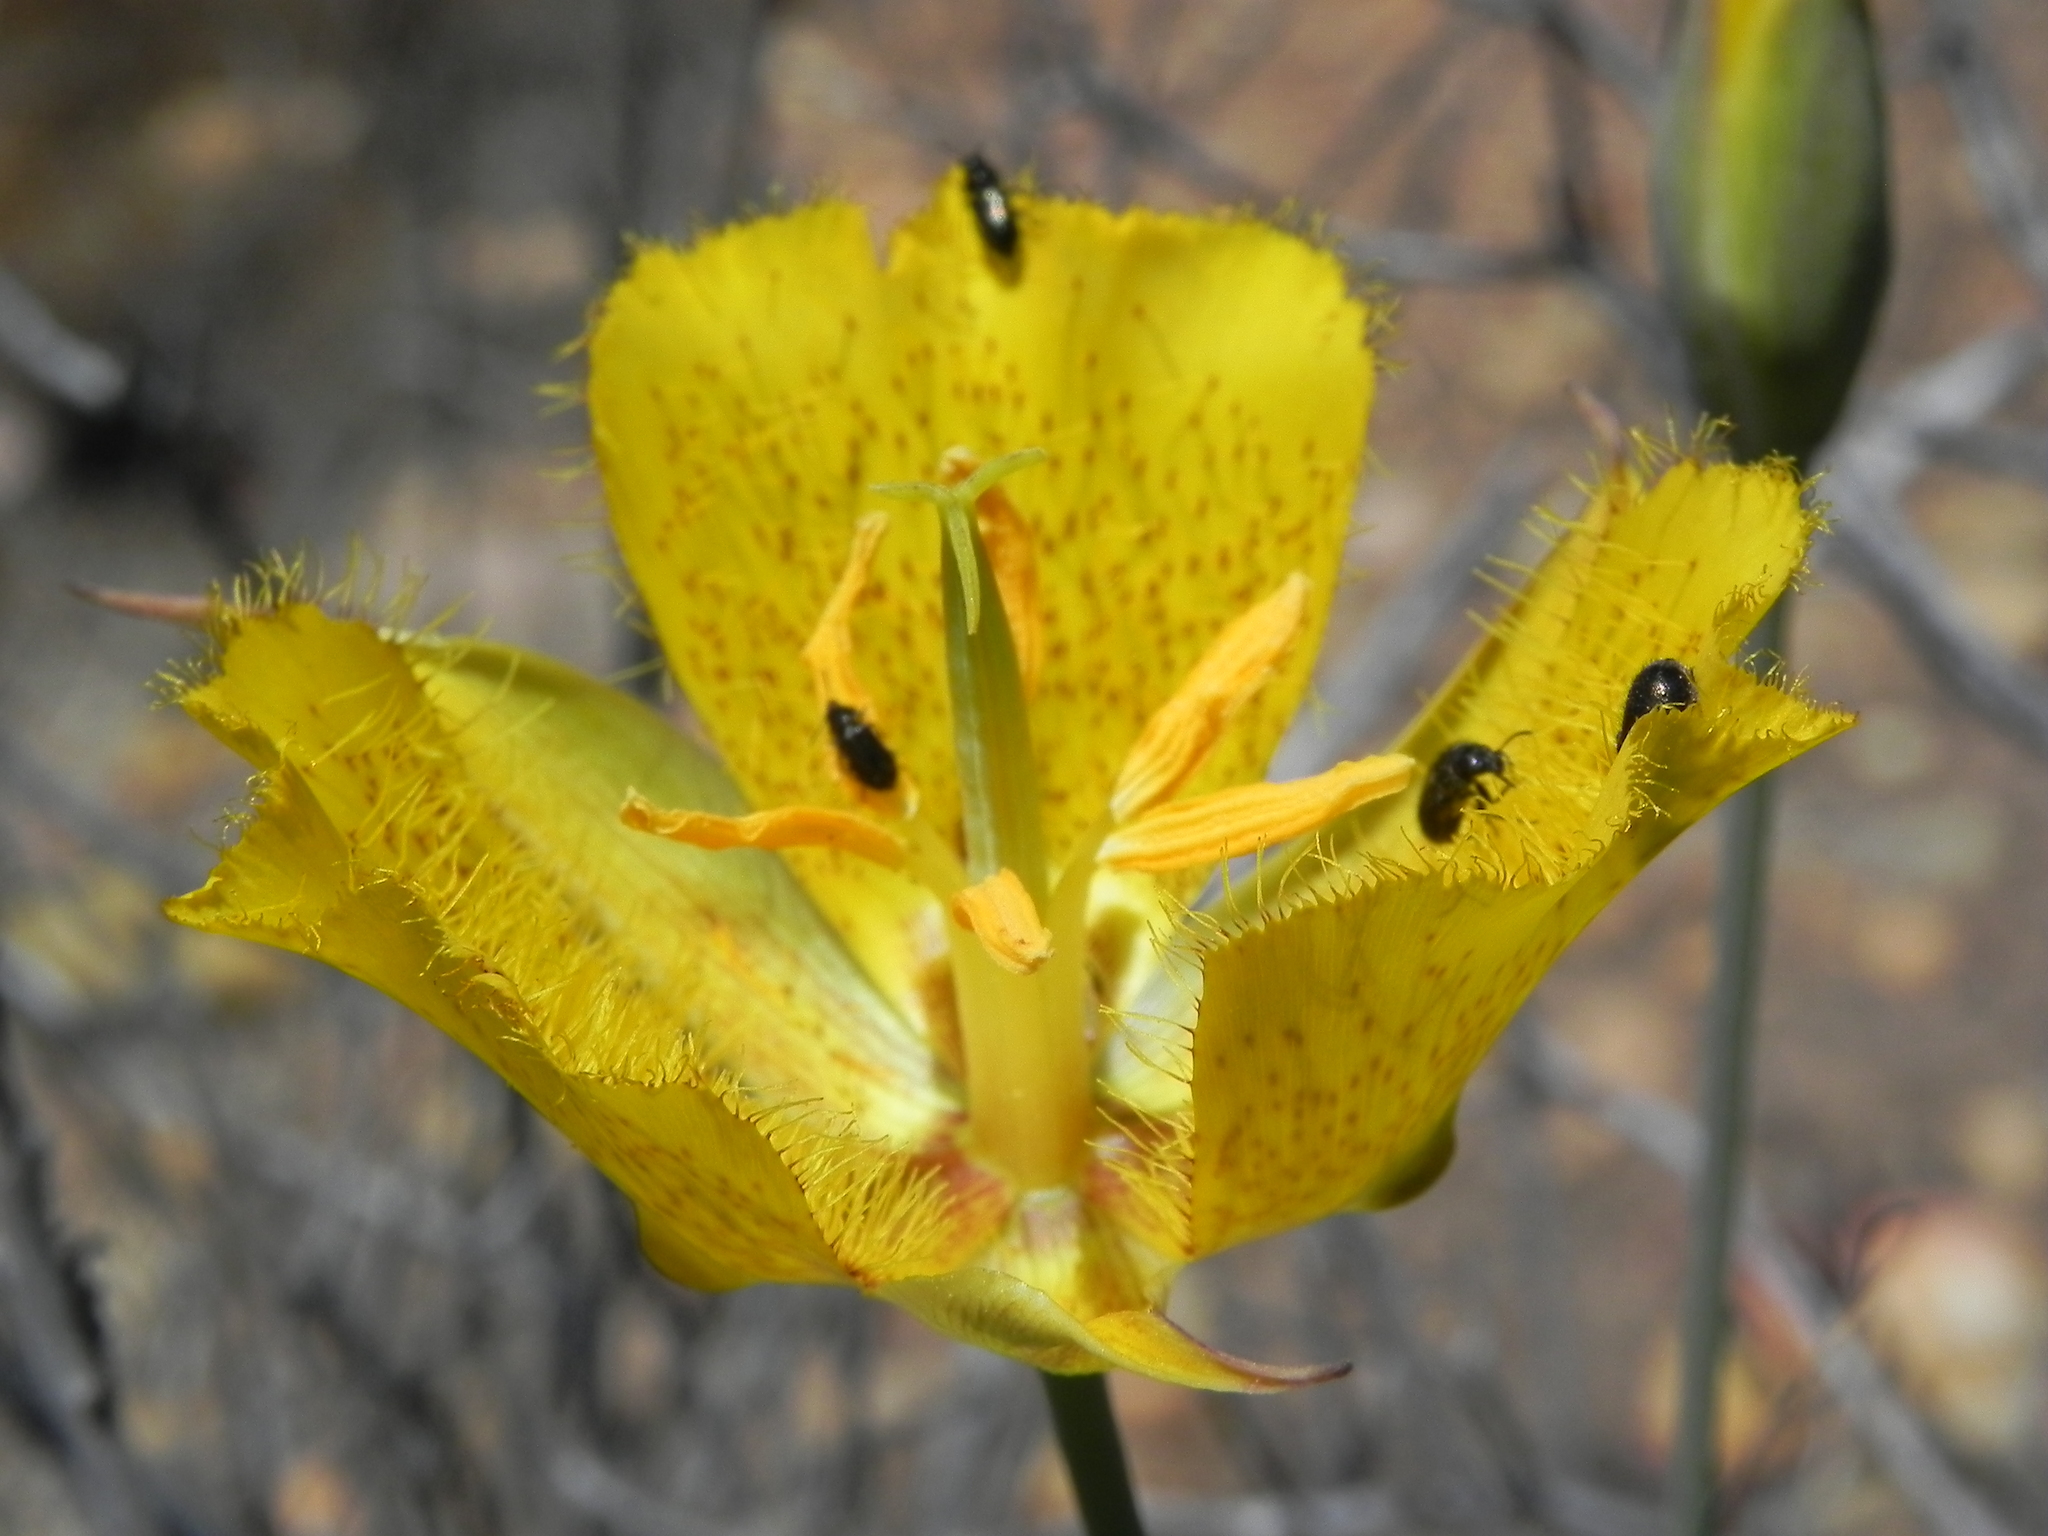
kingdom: Plantae
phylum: Tracheophyta
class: Liliopsida
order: Liliales
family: Liliaceae
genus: Calochortus
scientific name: Calochortus weedii
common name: Weed's mariposa-lily
